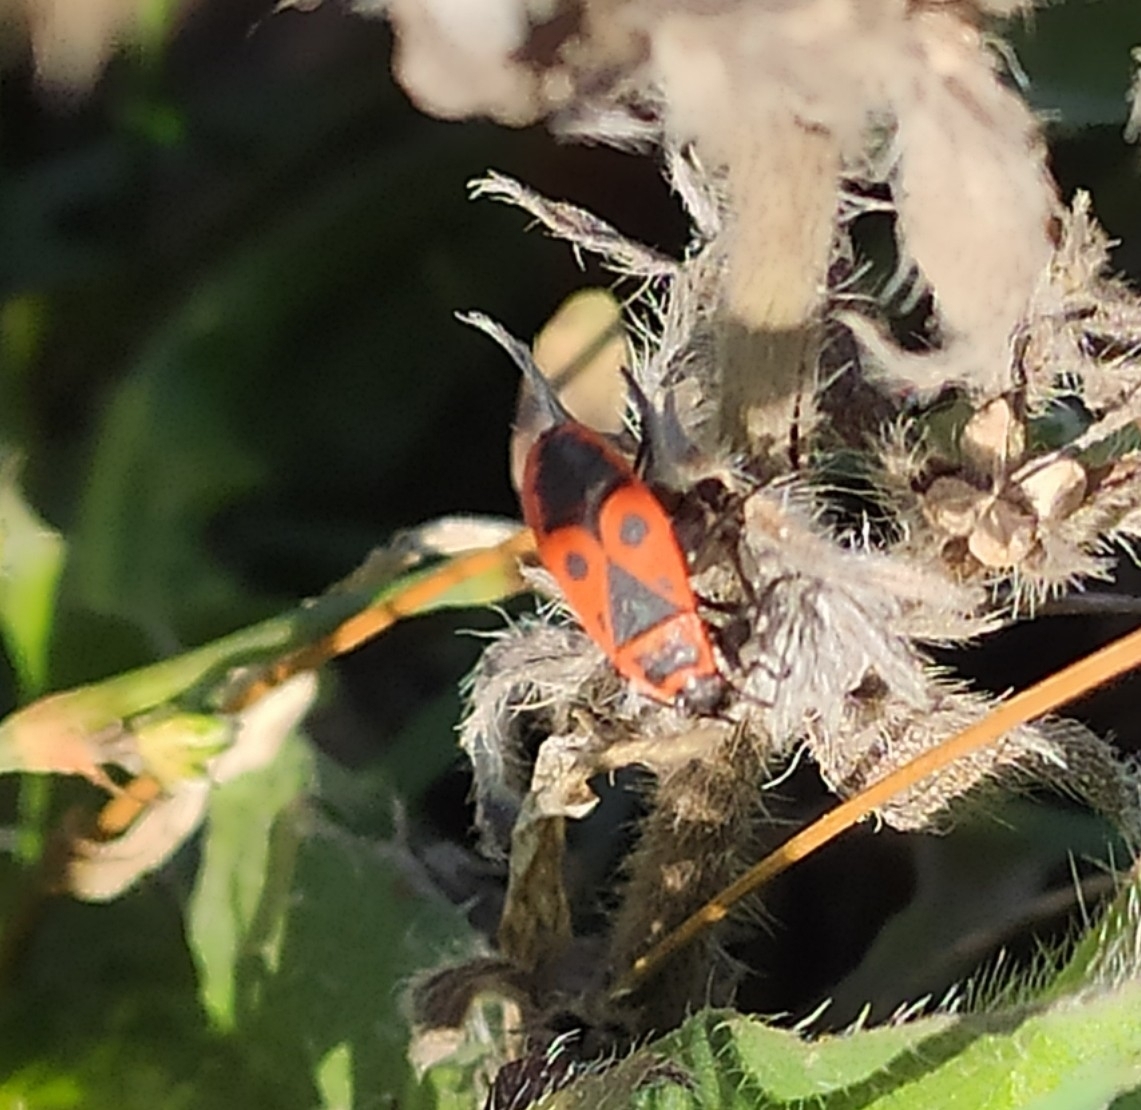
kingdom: Animalia
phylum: Arthropoda
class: Insecta
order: Hemiptera
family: Pyrrhocoridae
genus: Pyrrhocoris
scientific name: Pyrrhocoris apterus
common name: Firebug
